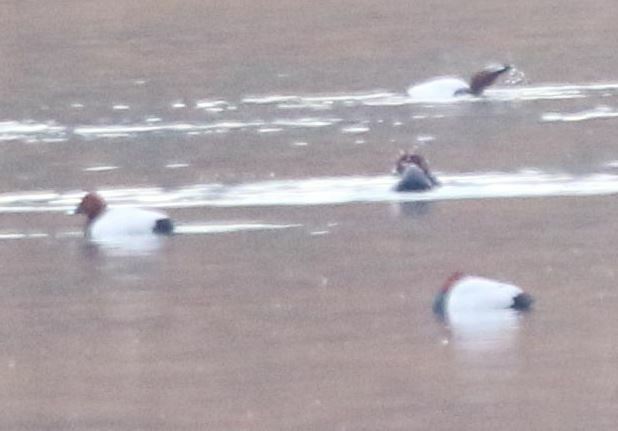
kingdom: Animalia
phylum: Chordata
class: Aves
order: Anseriformes
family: Anatidae
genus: Aythya
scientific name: Aythya ferina
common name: Common pochard
